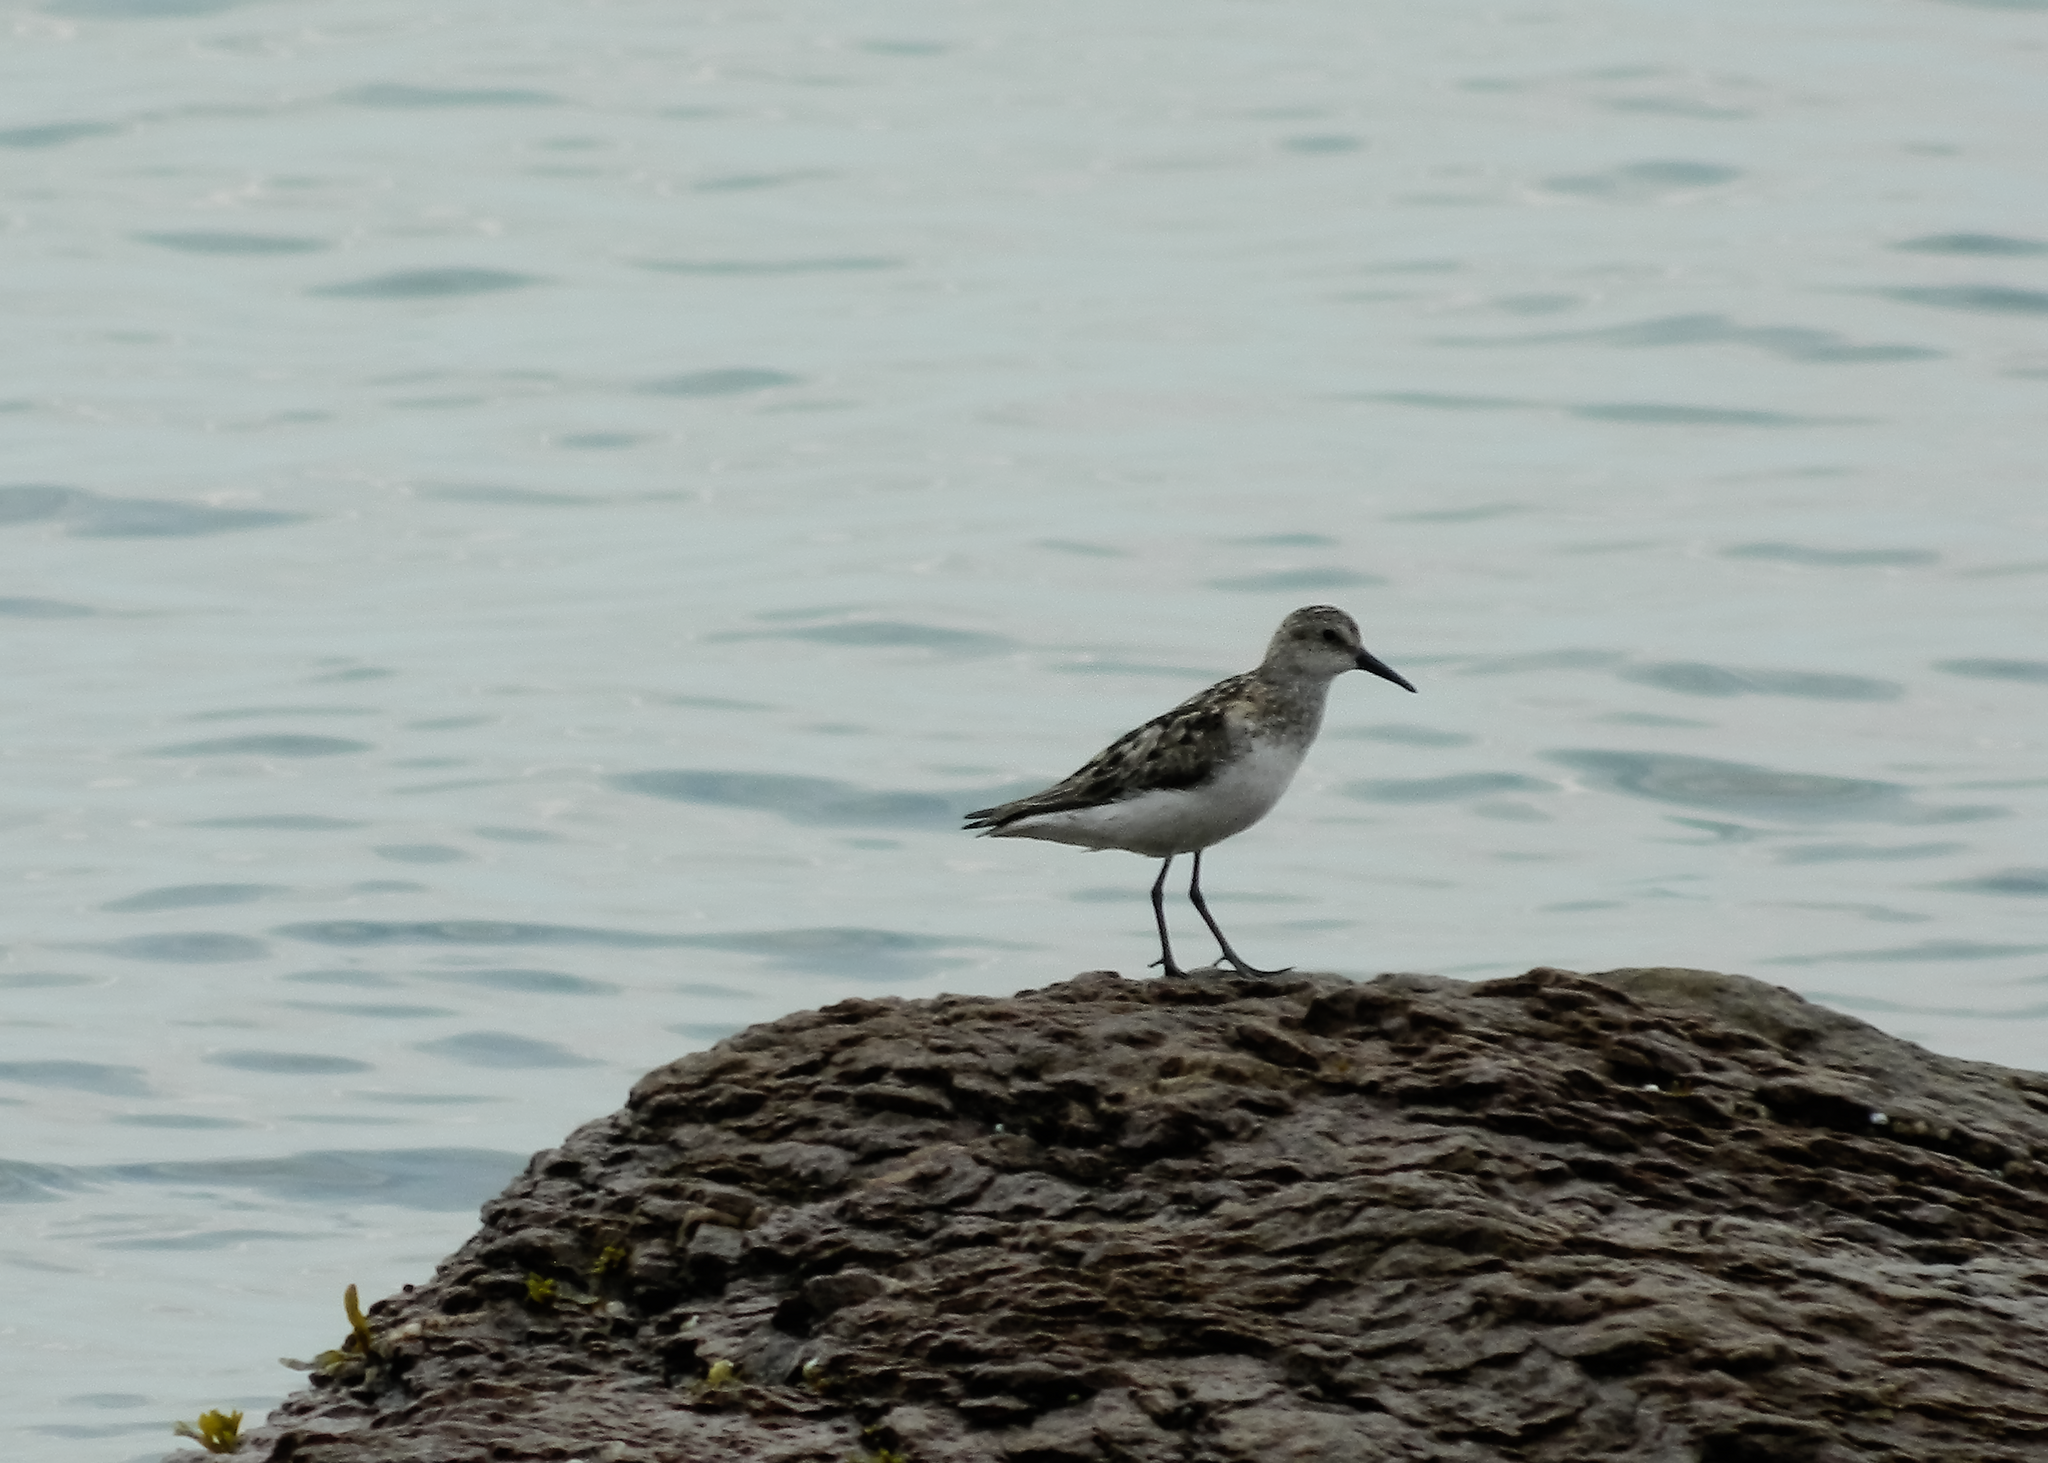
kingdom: Animalia
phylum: Chordata
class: Aves
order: Charadriiformes
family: Scolopacidae
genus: Calidris
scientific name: Calidris pusilla
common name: Semipalmated sandpiper
